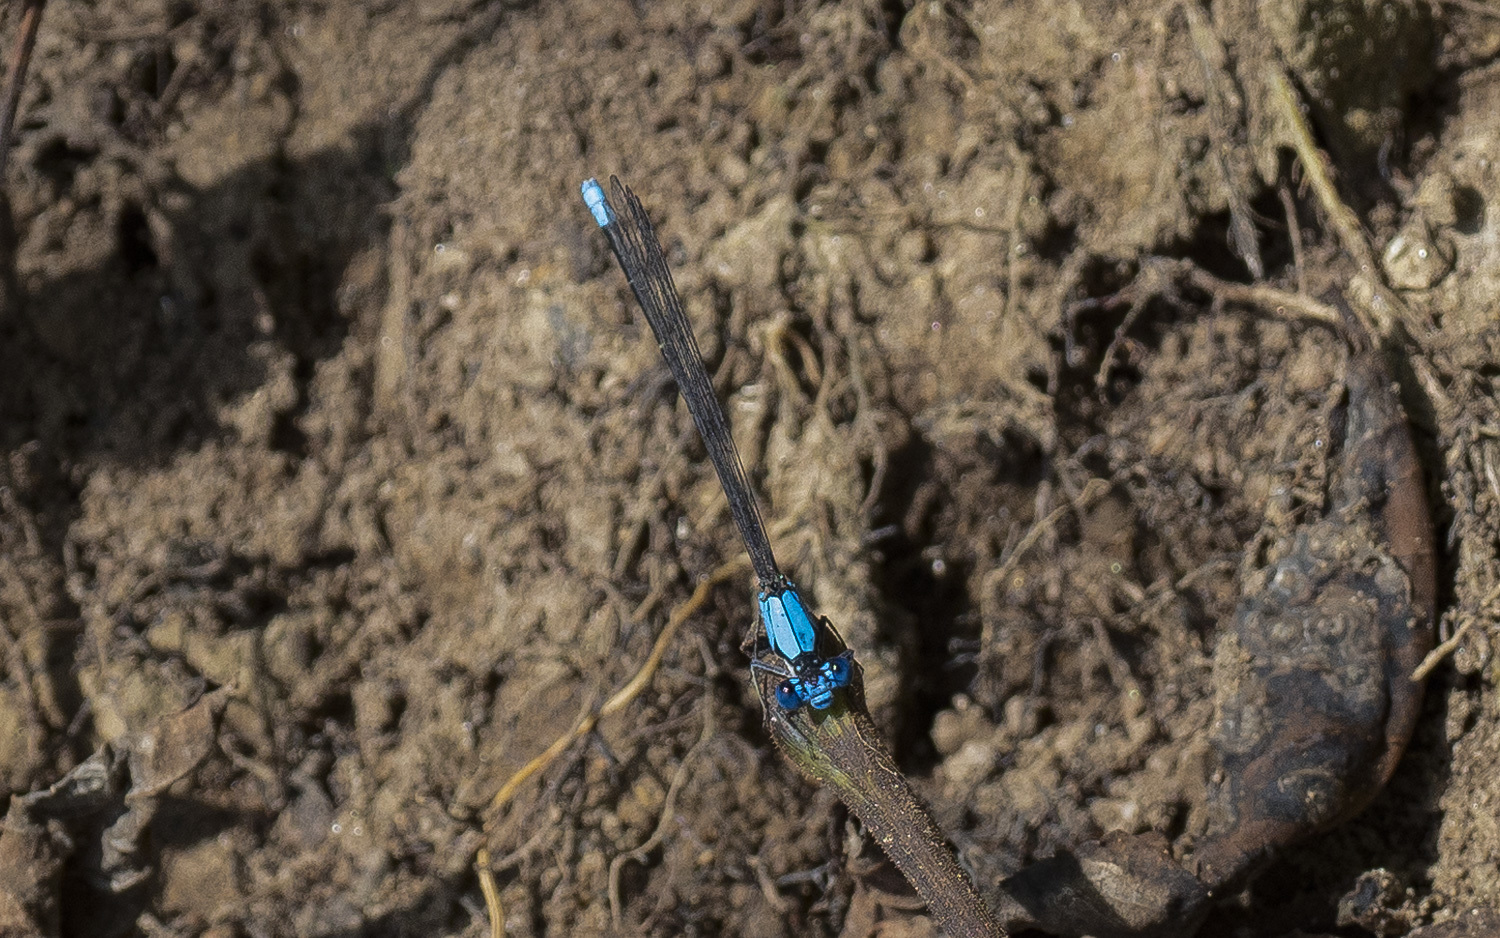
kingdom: Animalia
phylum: Arthropoda
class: Insecta
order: Odonata
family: Coenagrionidae
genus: Argia
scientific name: Argia apicalis
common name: Blue-fronted dancer
